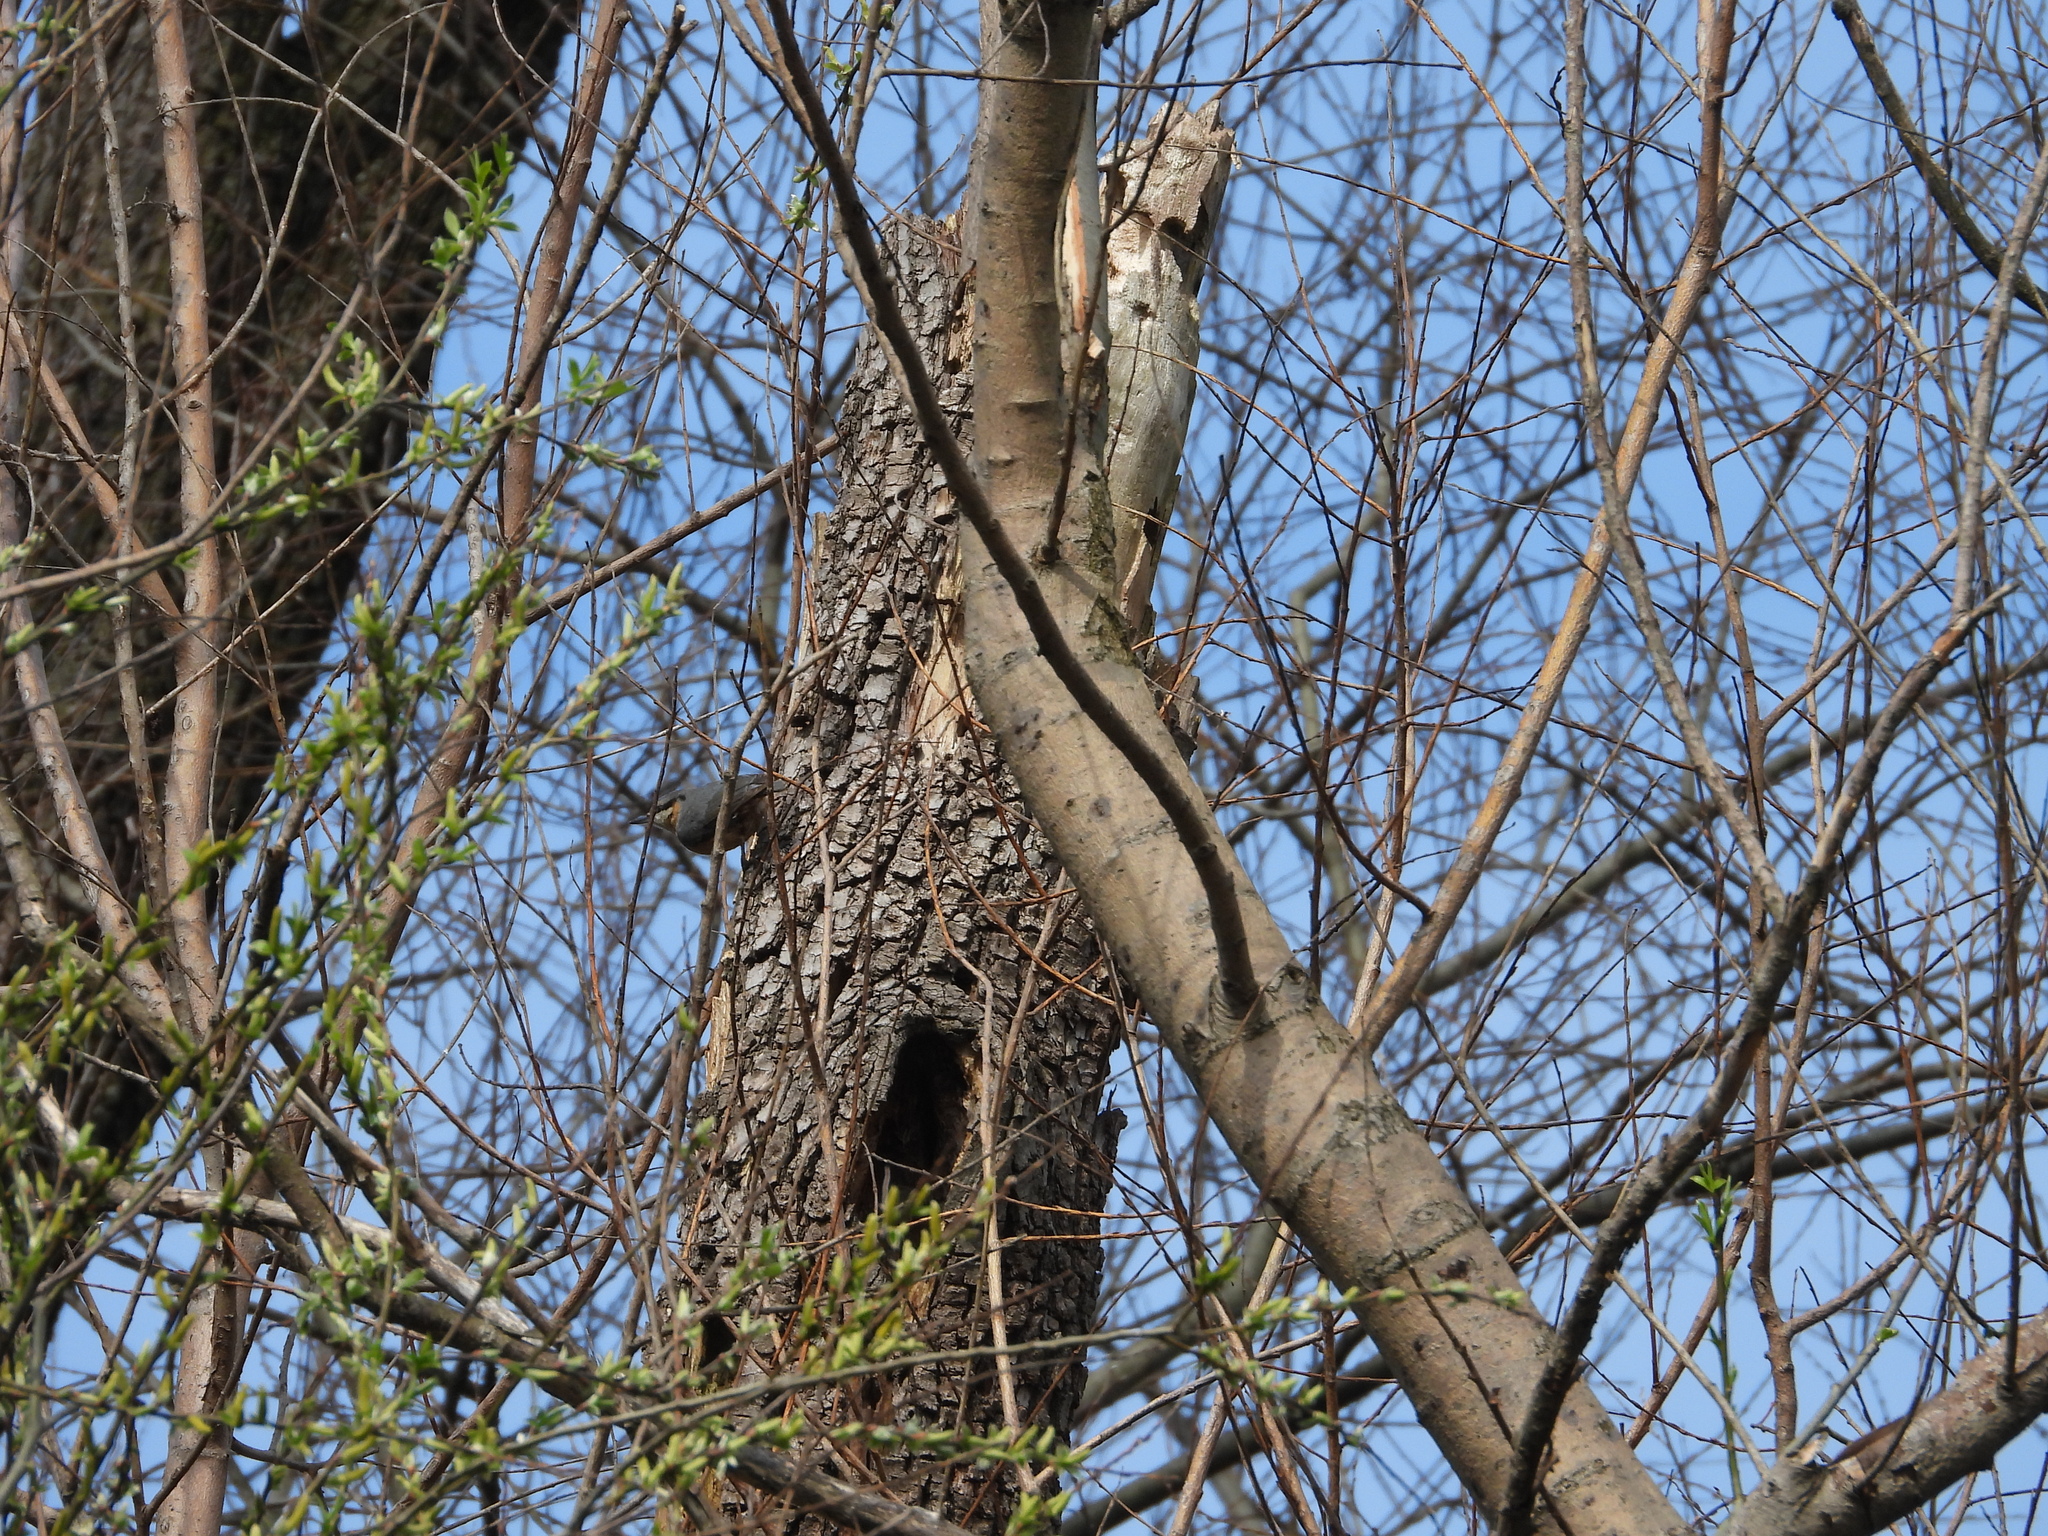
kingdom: Animalia
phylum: Chordata
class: Aves
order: Passeriformes
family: Sittidae
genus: Sitta
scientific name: Sitta europaea
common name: Eurasian nuthatch
